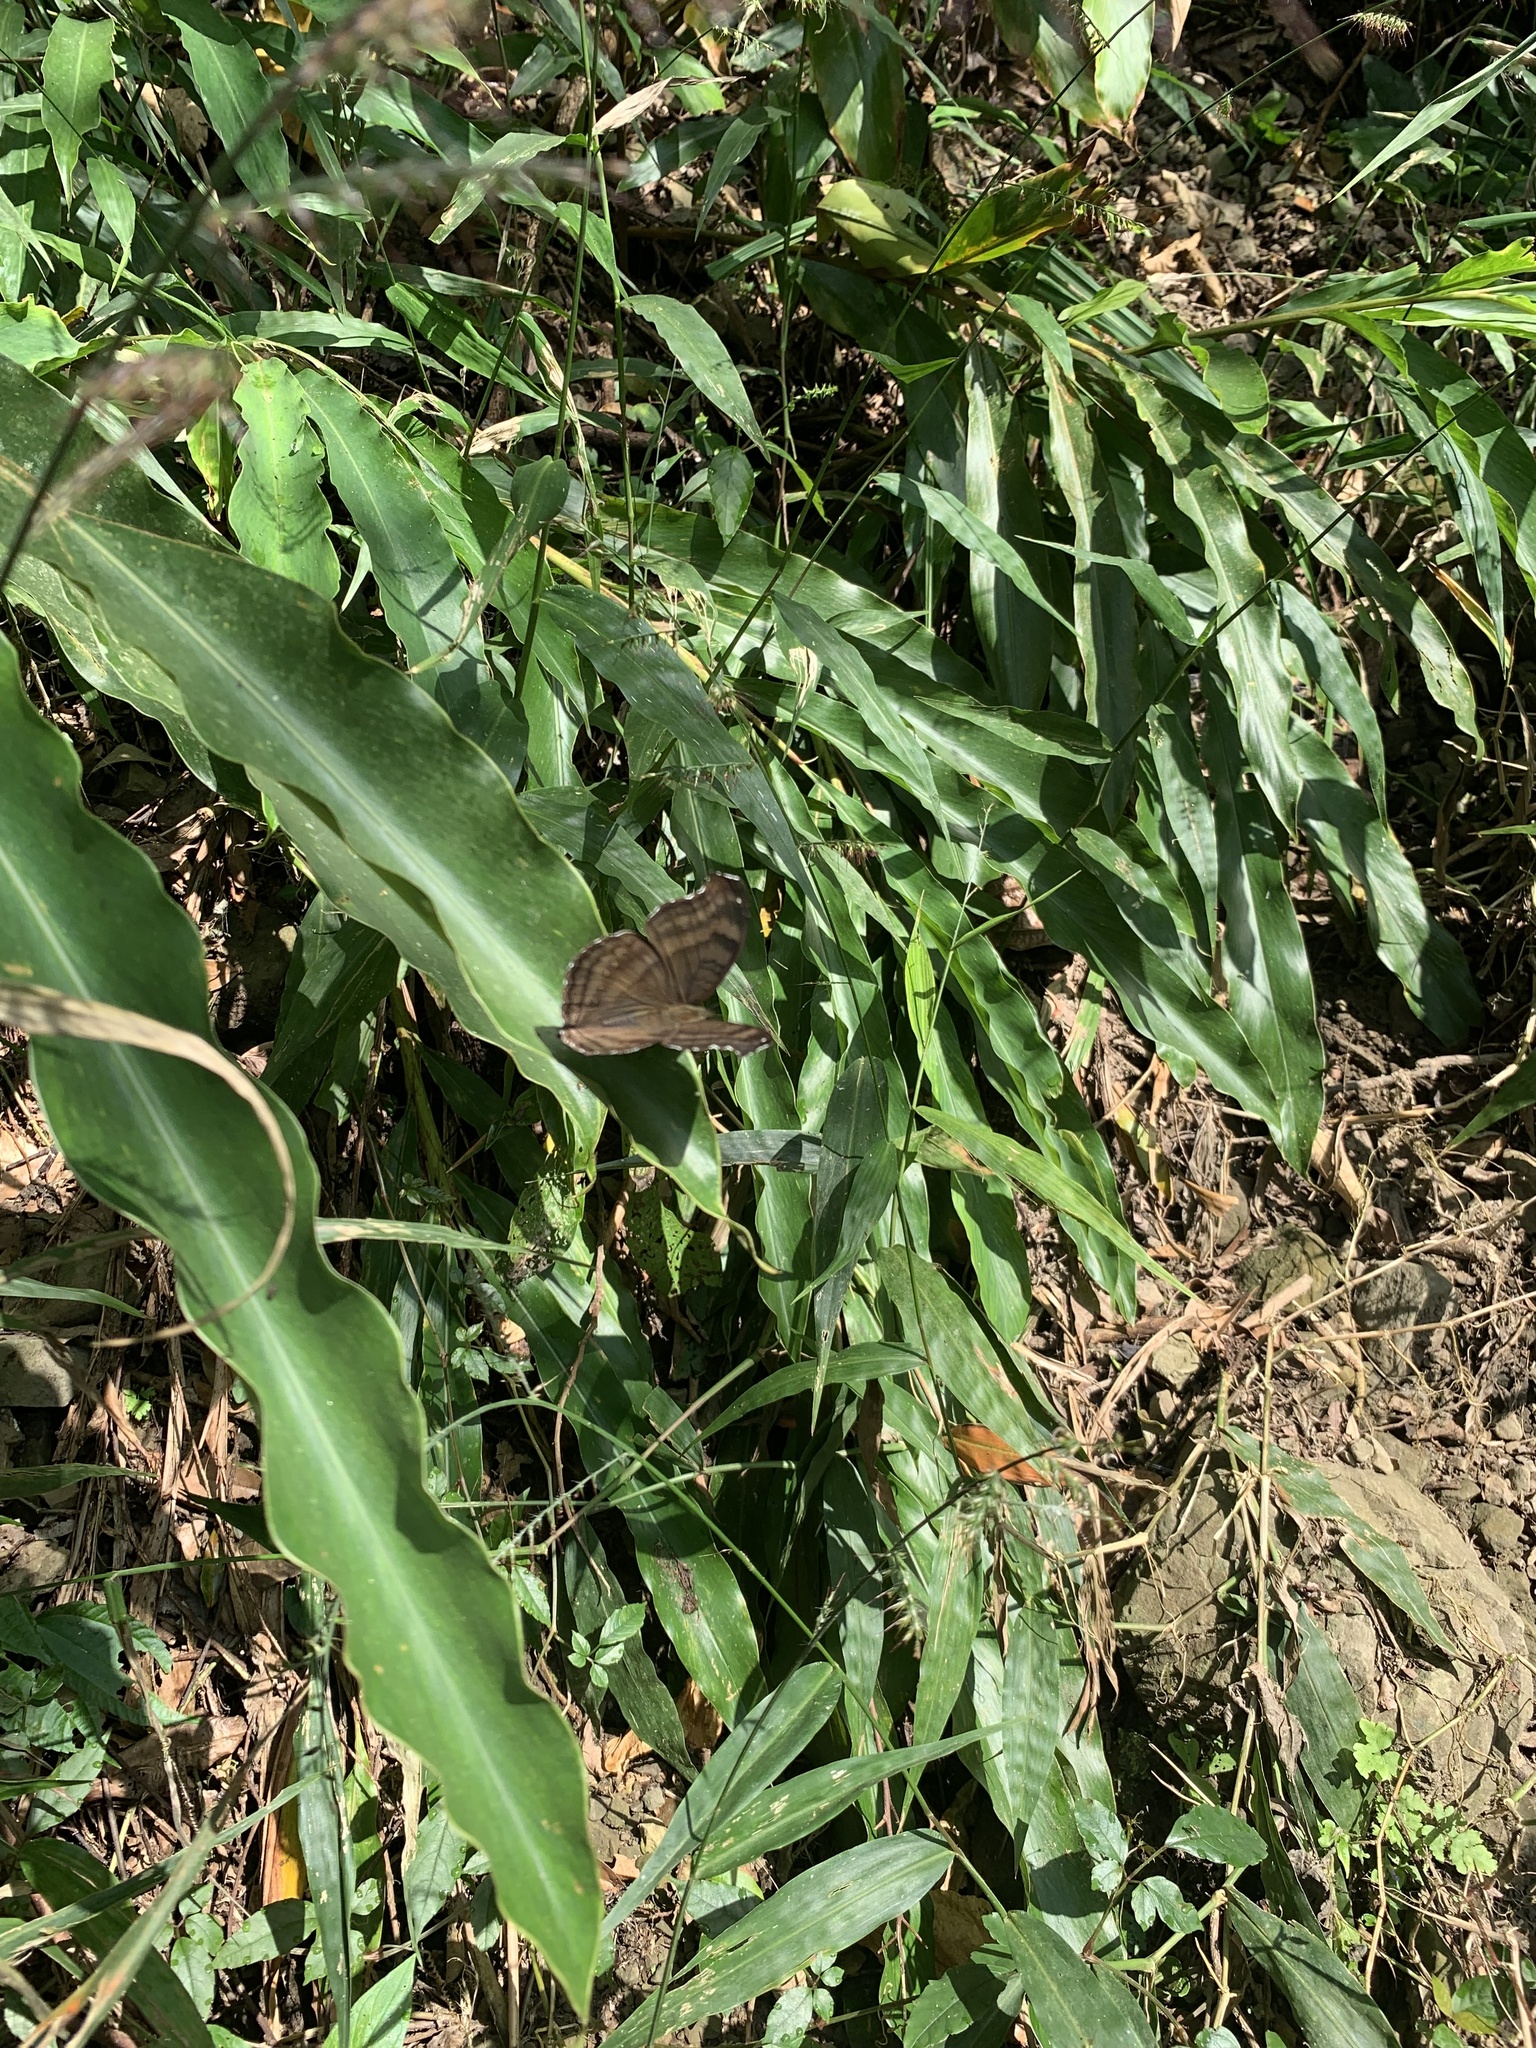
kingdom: Animalia
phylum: Arthropoda
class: Insecta
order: Lepidoptera
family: Nymphalidae
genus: Junonia
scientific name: Junonia iphita
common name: Chocolate pansy
